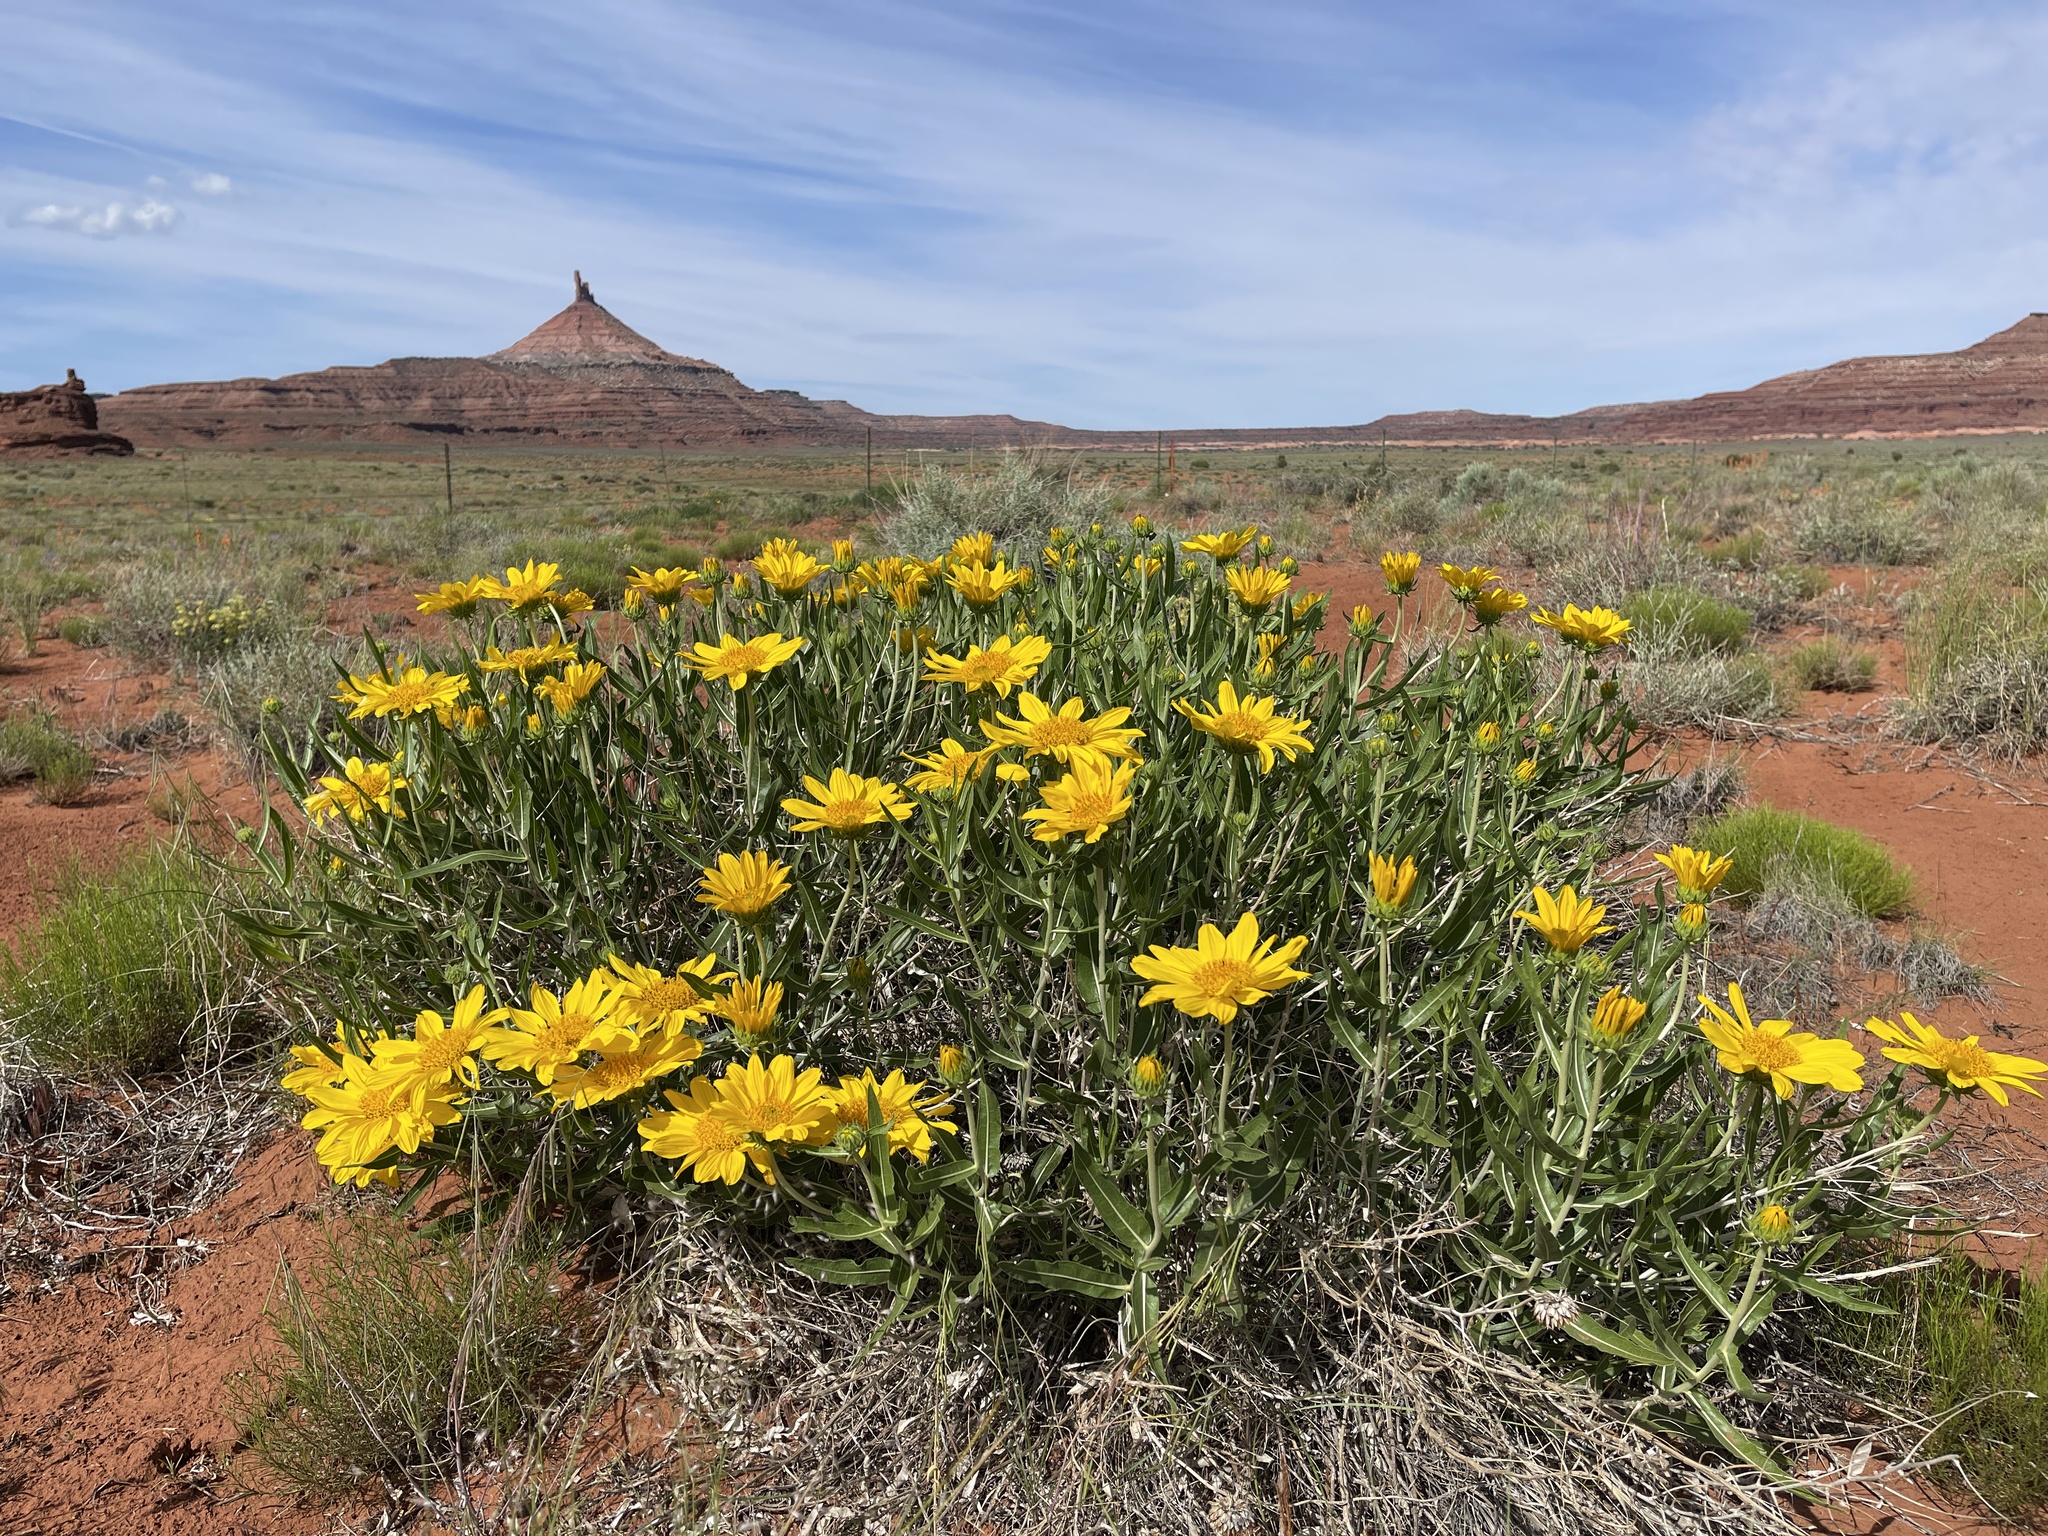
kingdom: Plantae
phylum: Tracheophyta
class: Magnoliopsida
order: Asterales
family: Asteraceae
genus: Scabrethia
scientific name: Scabrethia scabra
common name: Rough mules's-ears
